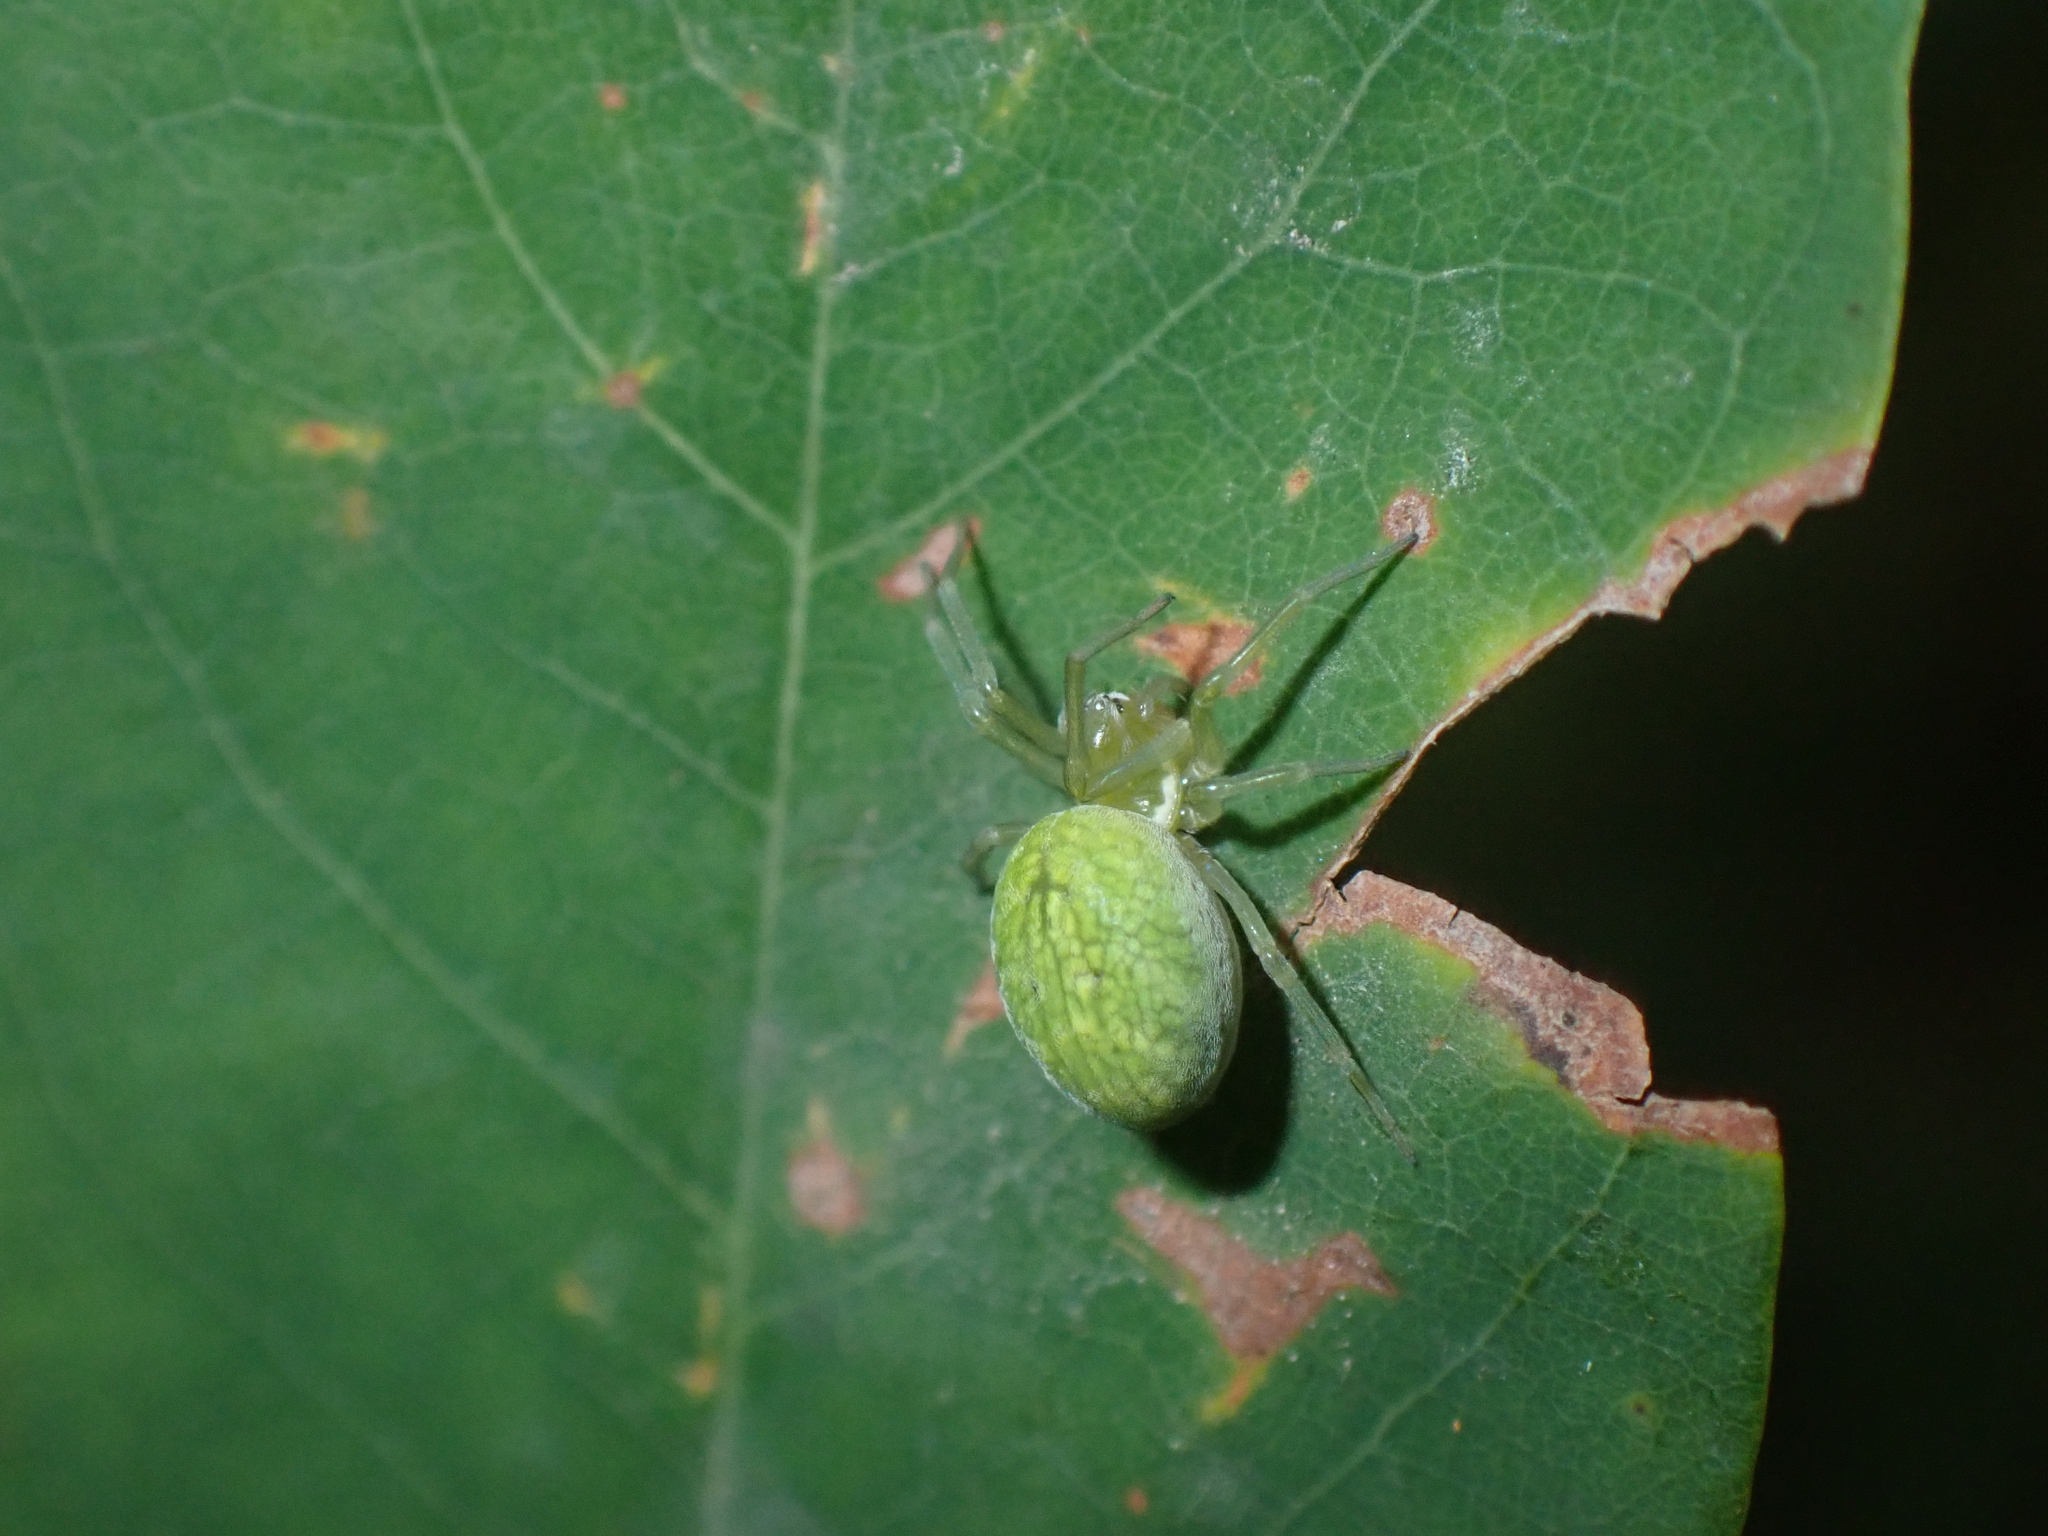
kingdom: Animalia
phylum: Arthropoda
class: Arachnida
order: Araneae
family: Dictynidae
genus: Nigma
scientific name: Nigma walckenaeri
